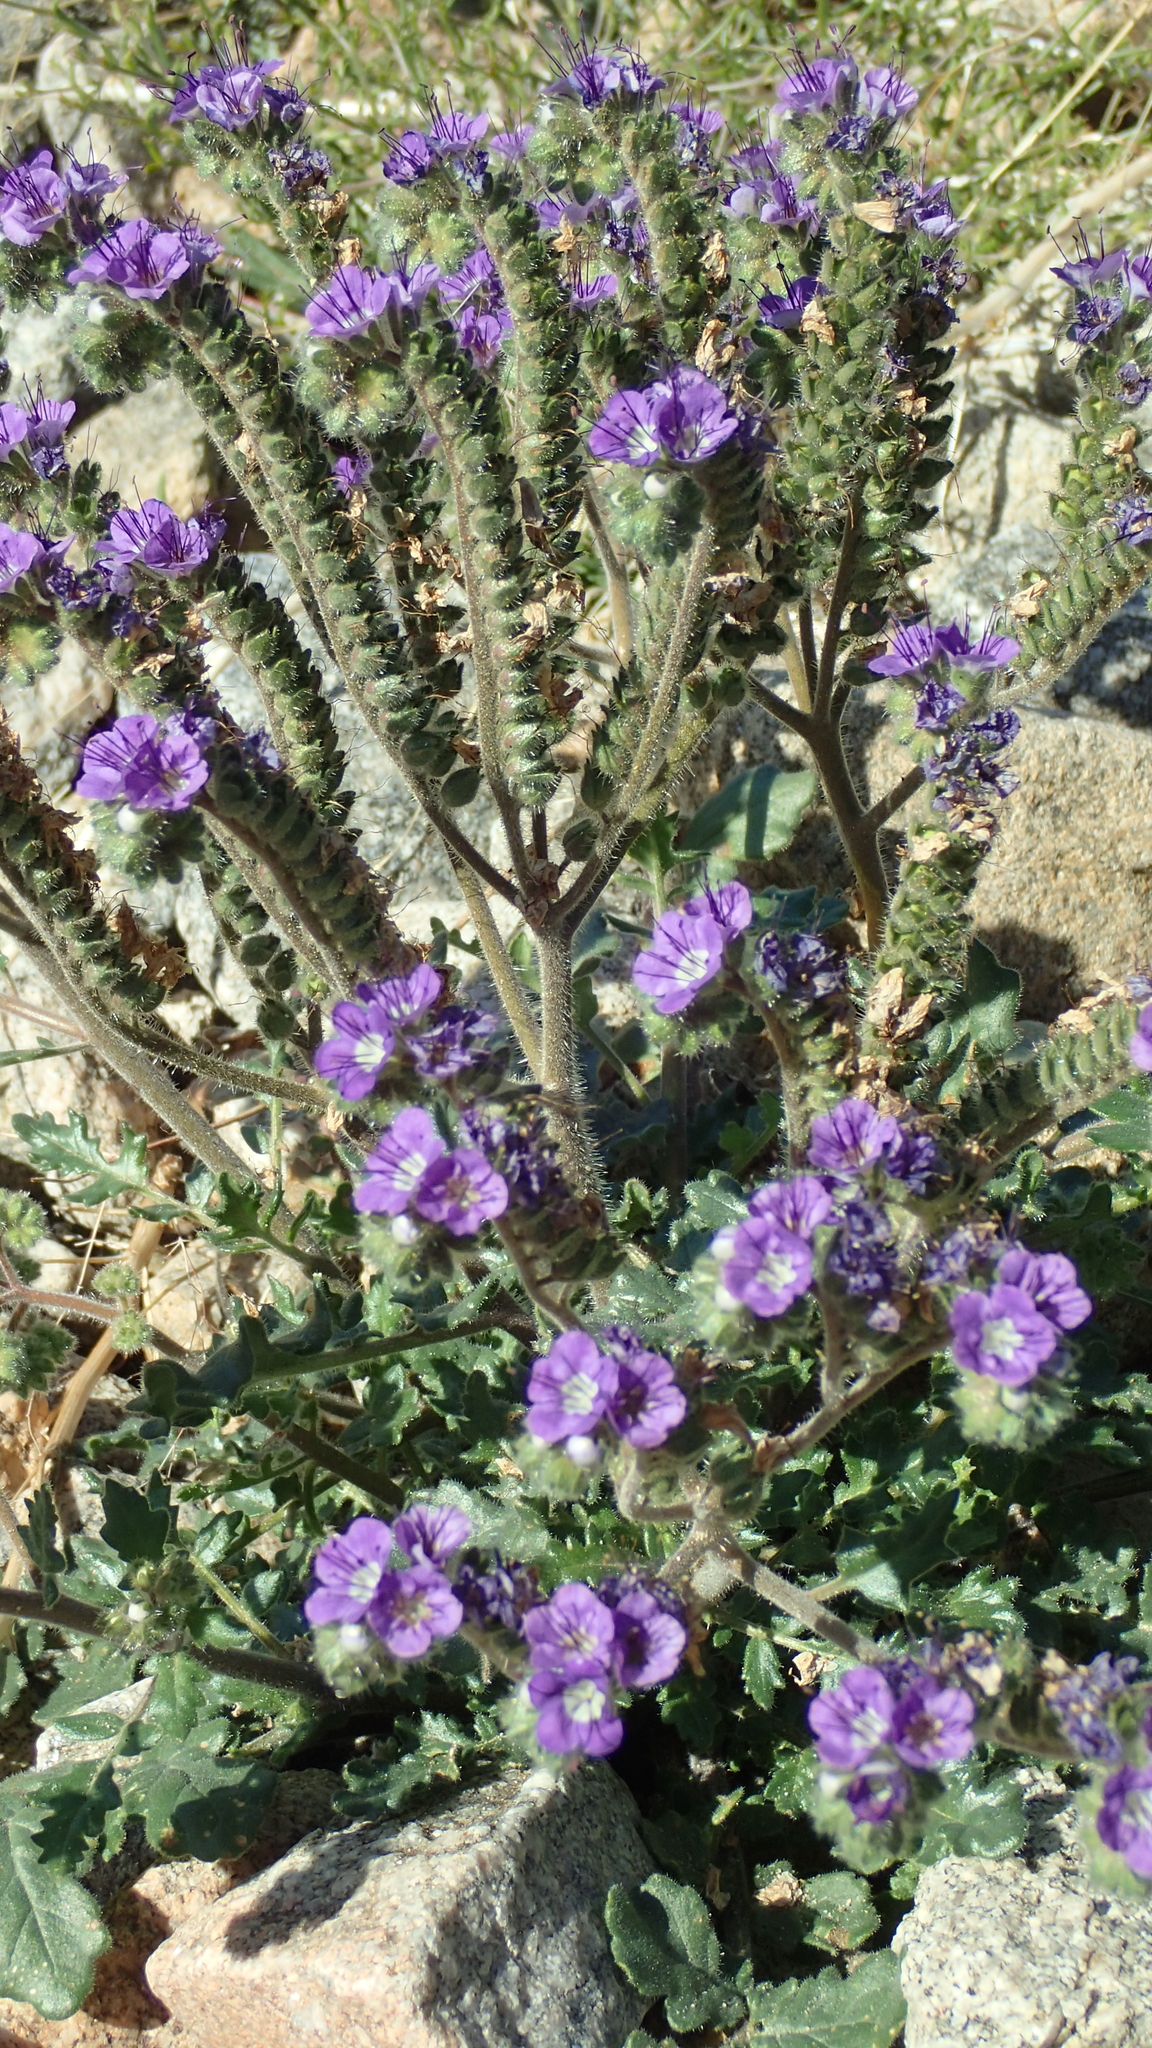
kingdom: Plantae
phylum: Tracheophyta
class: Magnoliopsida
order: Boraginales
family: Hydrophyllaceae
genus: Phacelia
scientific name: Phacelia crenulata
